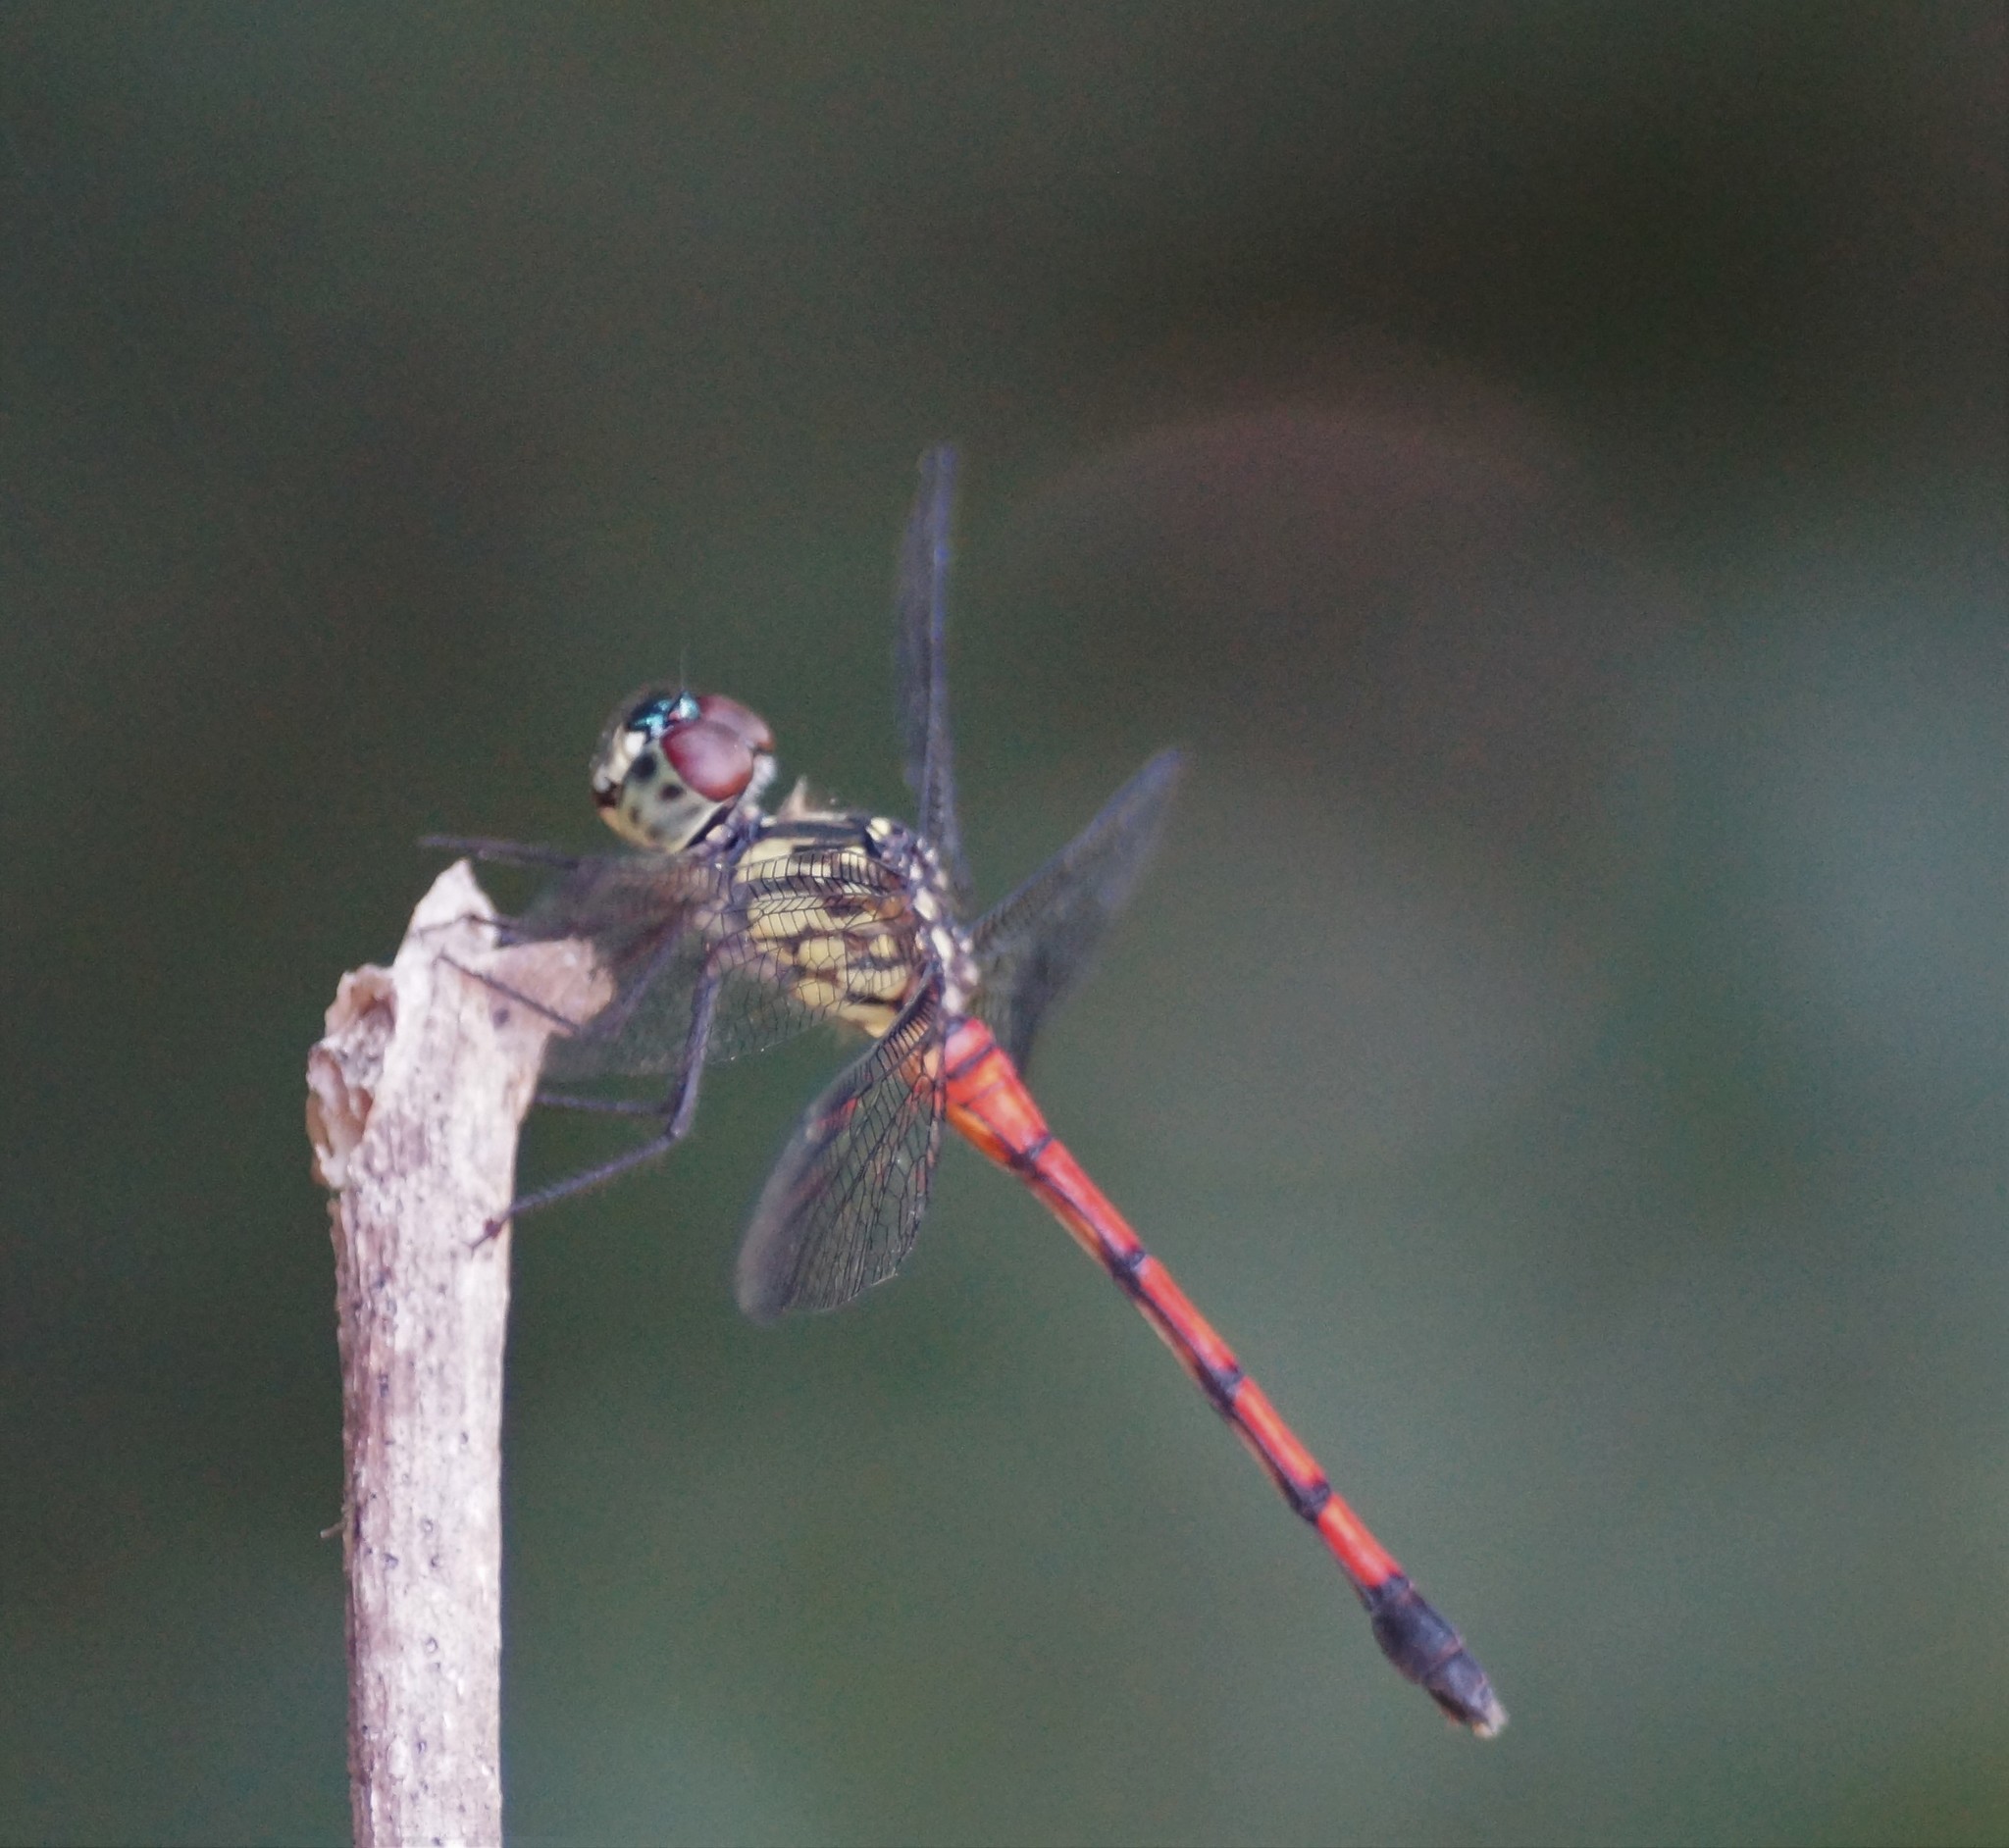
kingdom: Animalia
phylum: Arthropoda
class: Insecta
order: Odonata
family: Libellulidae
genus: Agrionoptera
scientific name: Agrionoptera insignis
